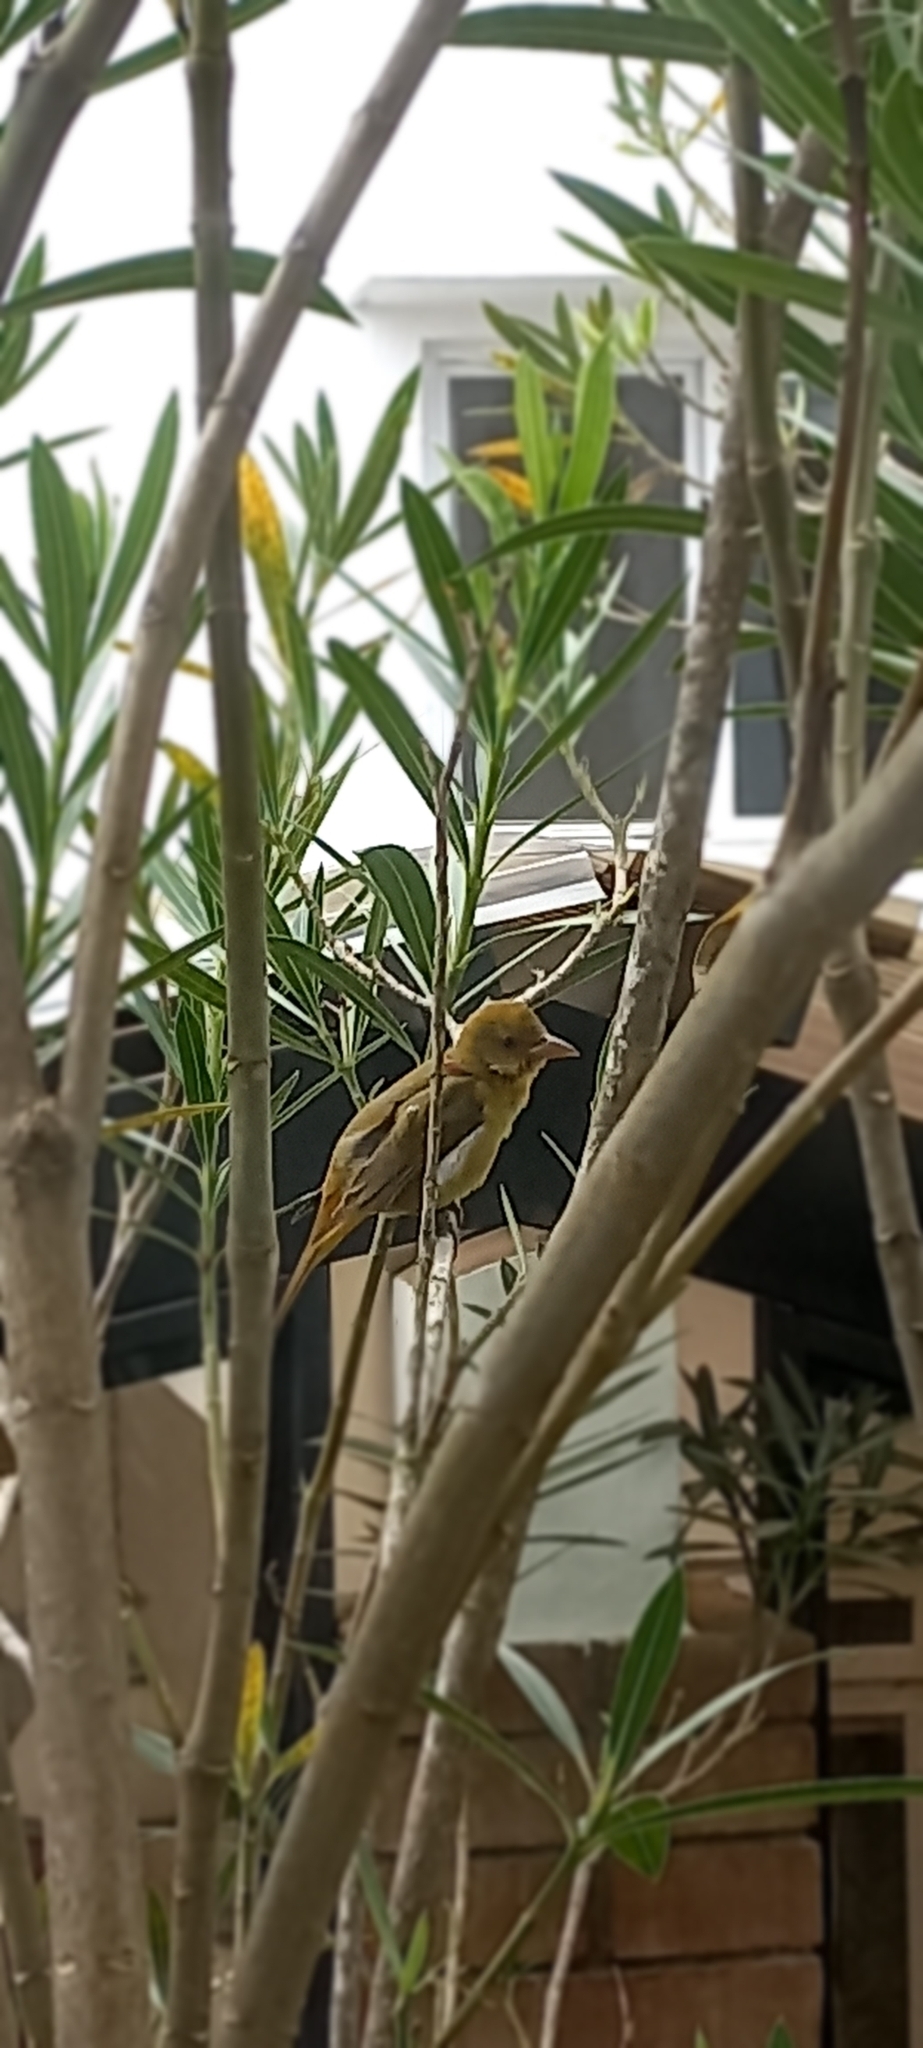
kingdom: Animalia
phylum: Chordata
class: Aves
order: Passeriformes
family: Cardinalidae
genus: Piranga
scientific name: Piranga rubra
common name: Summer tanager
